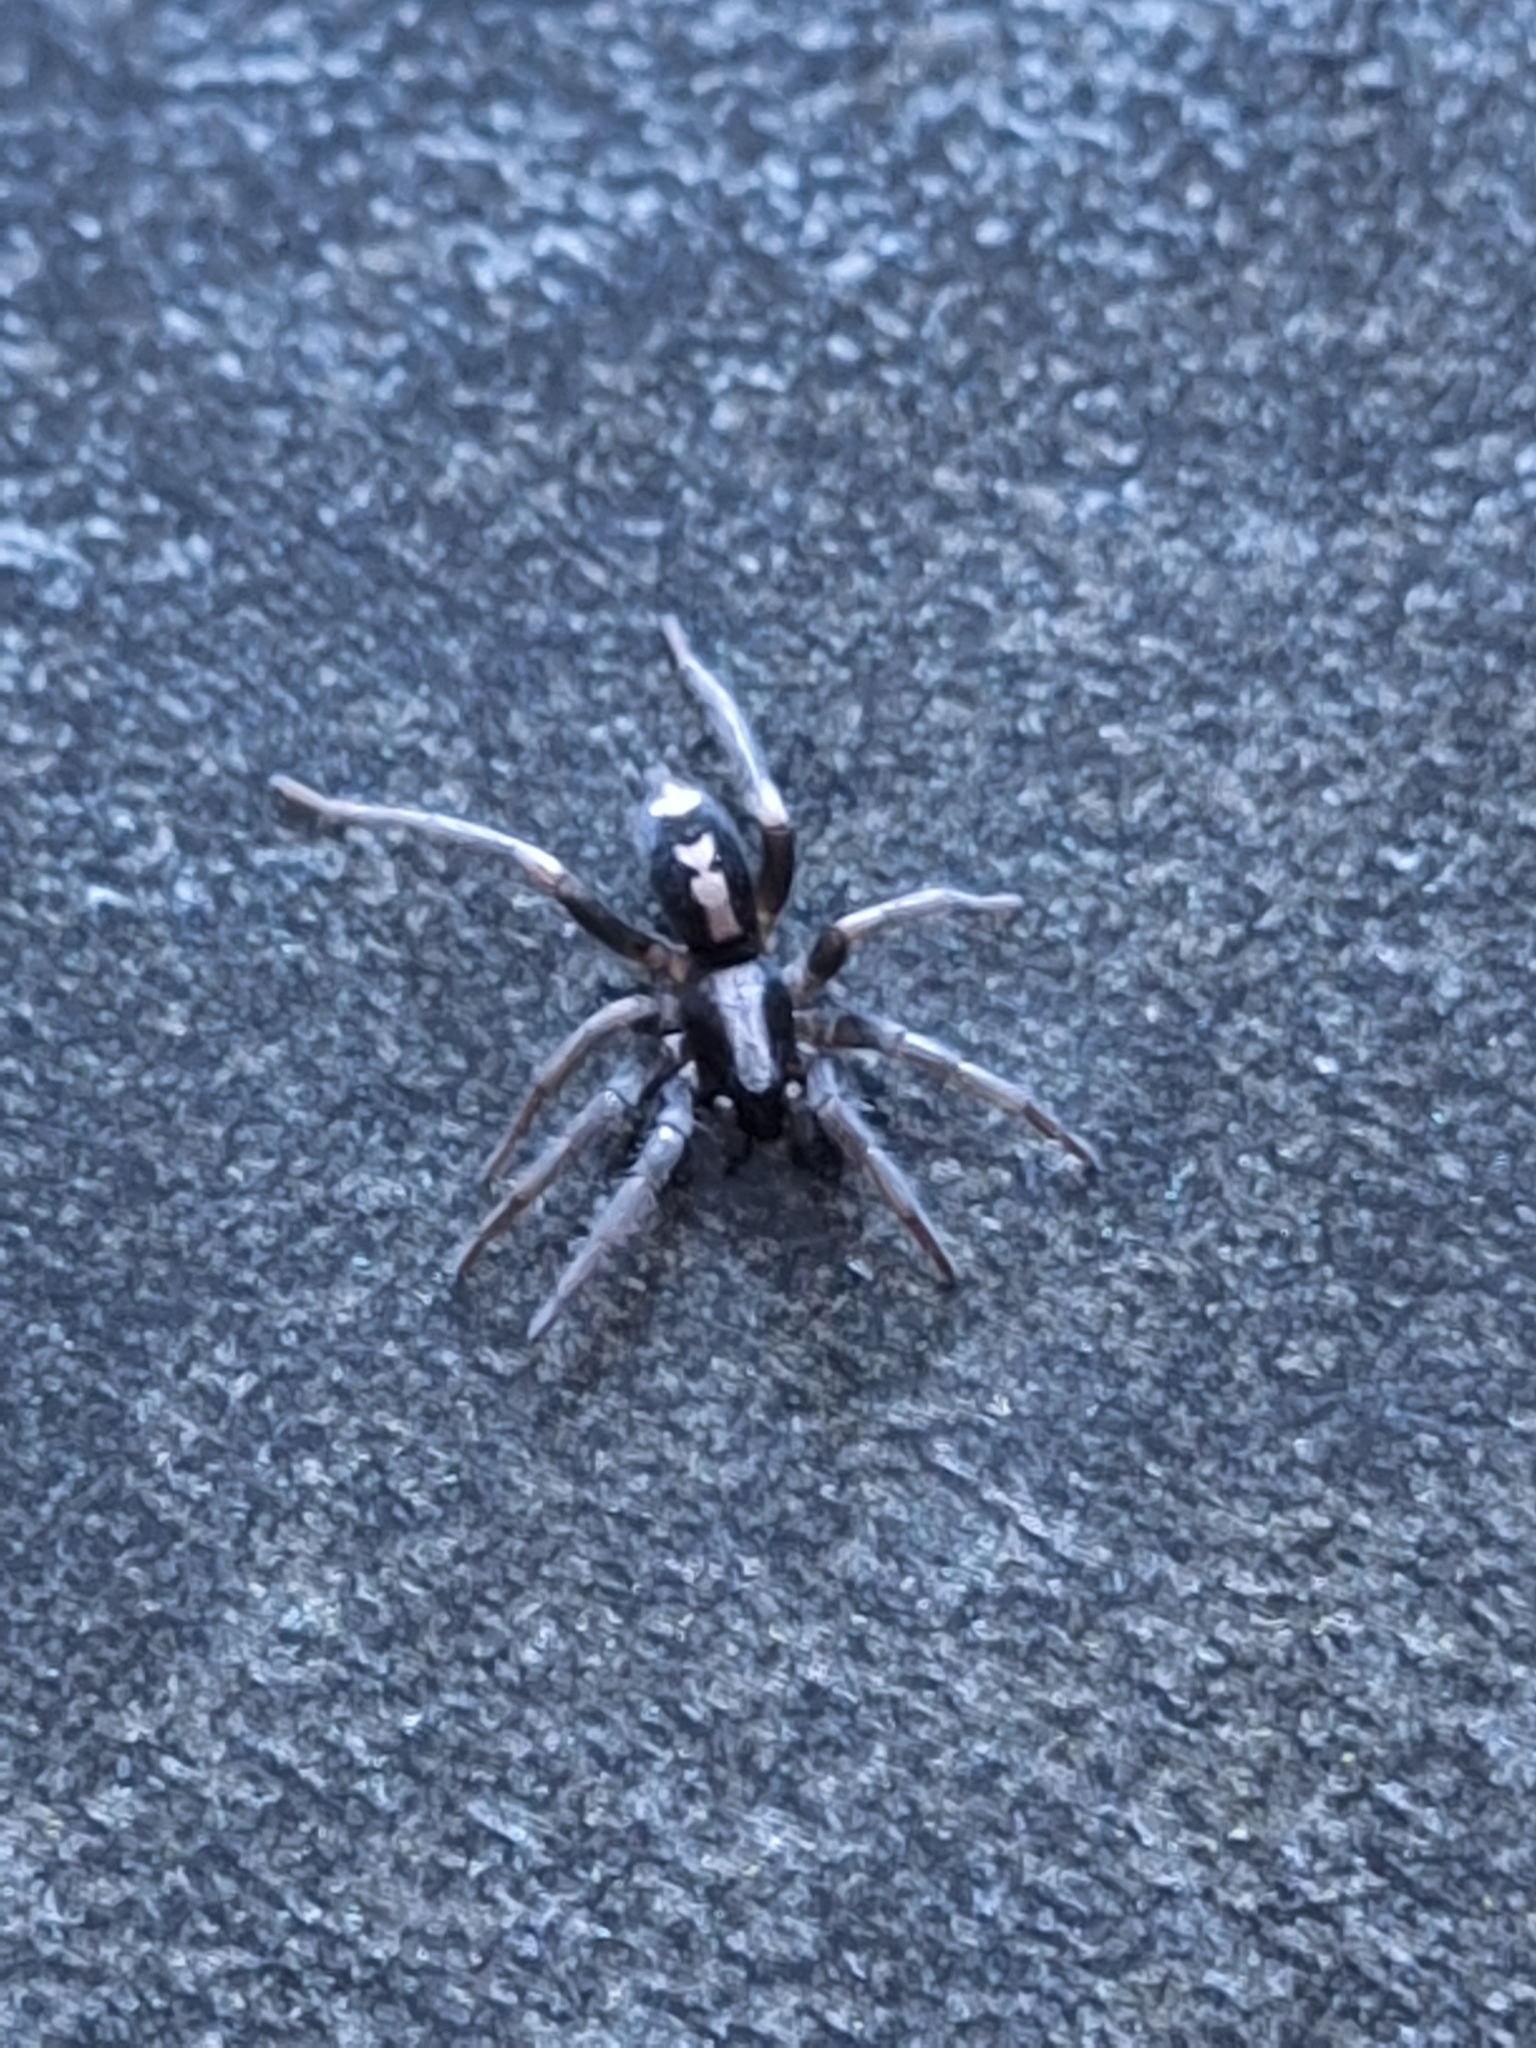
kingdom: Animalia
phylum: Arthropoda
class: Arachnida
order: Araneae
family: Gnaphosidae
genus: Herpyllus
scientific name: Herpyllus ecclesiasticus
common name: Eastern parson spider
